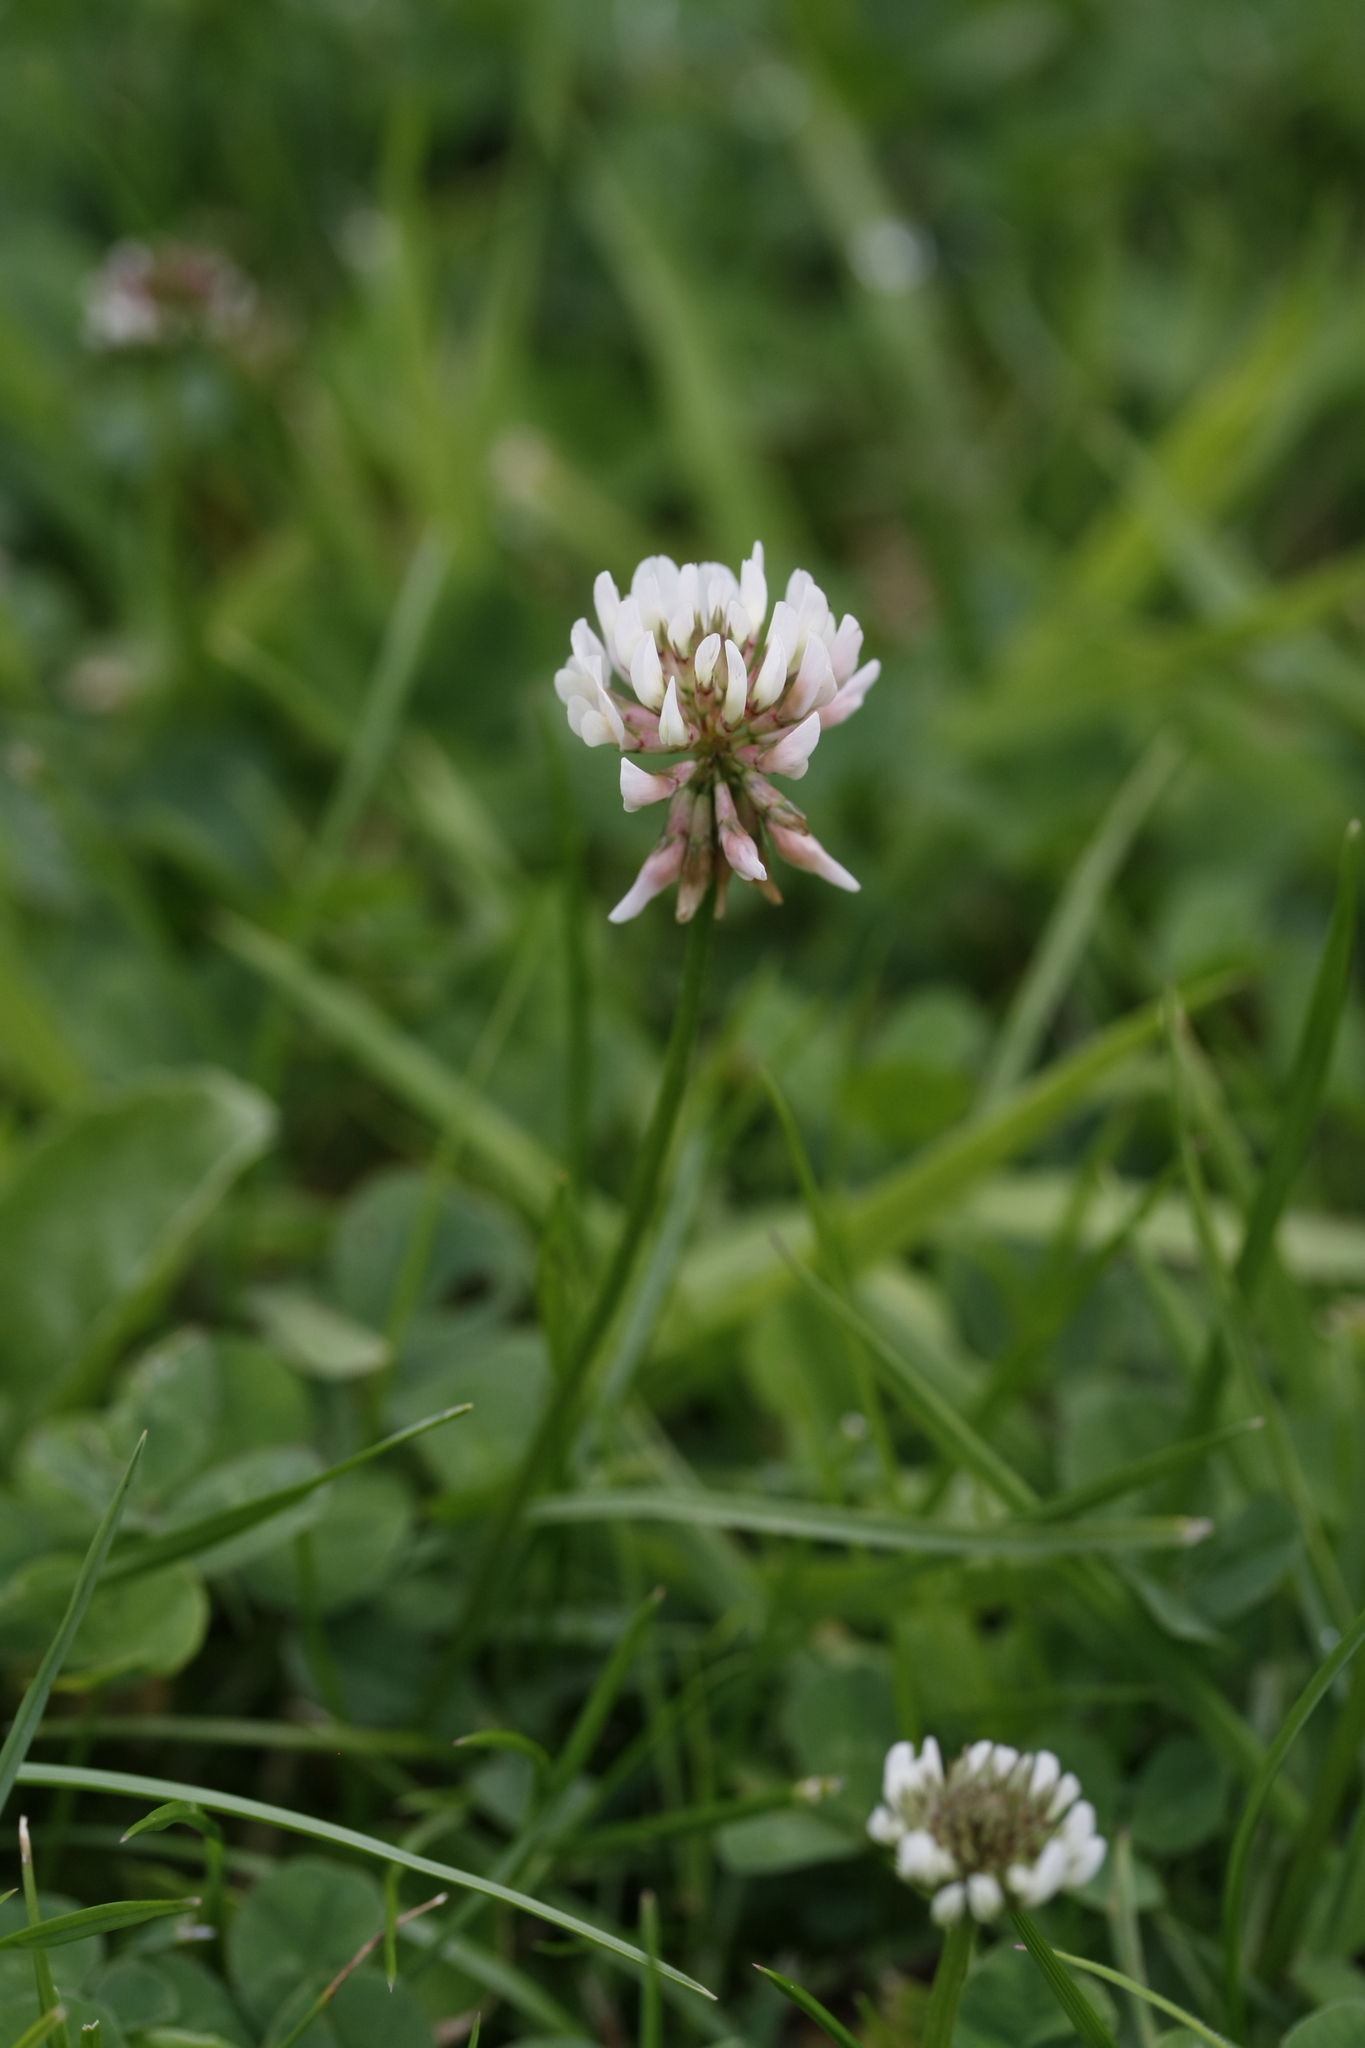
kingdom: Plantae
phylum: Tracheophyta
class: Magnoliopsida
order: Fabales
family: Fabaceae
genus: Trifolium
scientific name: Trifolium repens
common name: White clover
